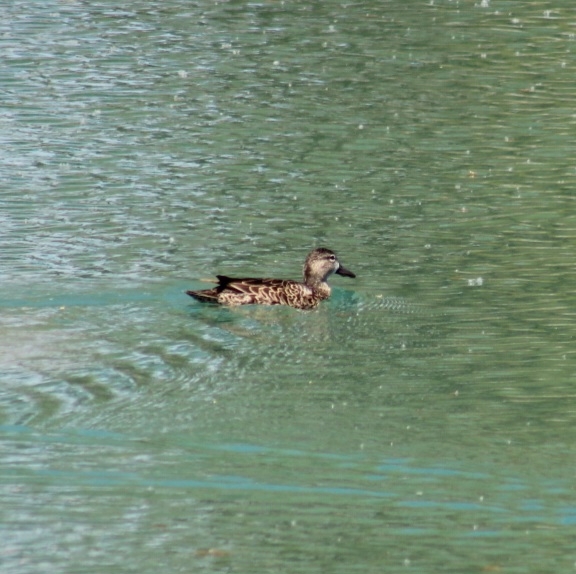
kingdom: Animalia
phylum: Chordata
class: Aves
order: Anseriformes
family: Anatidae
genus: Spatula
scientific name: Spatula discors
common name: Blue-winged teal
